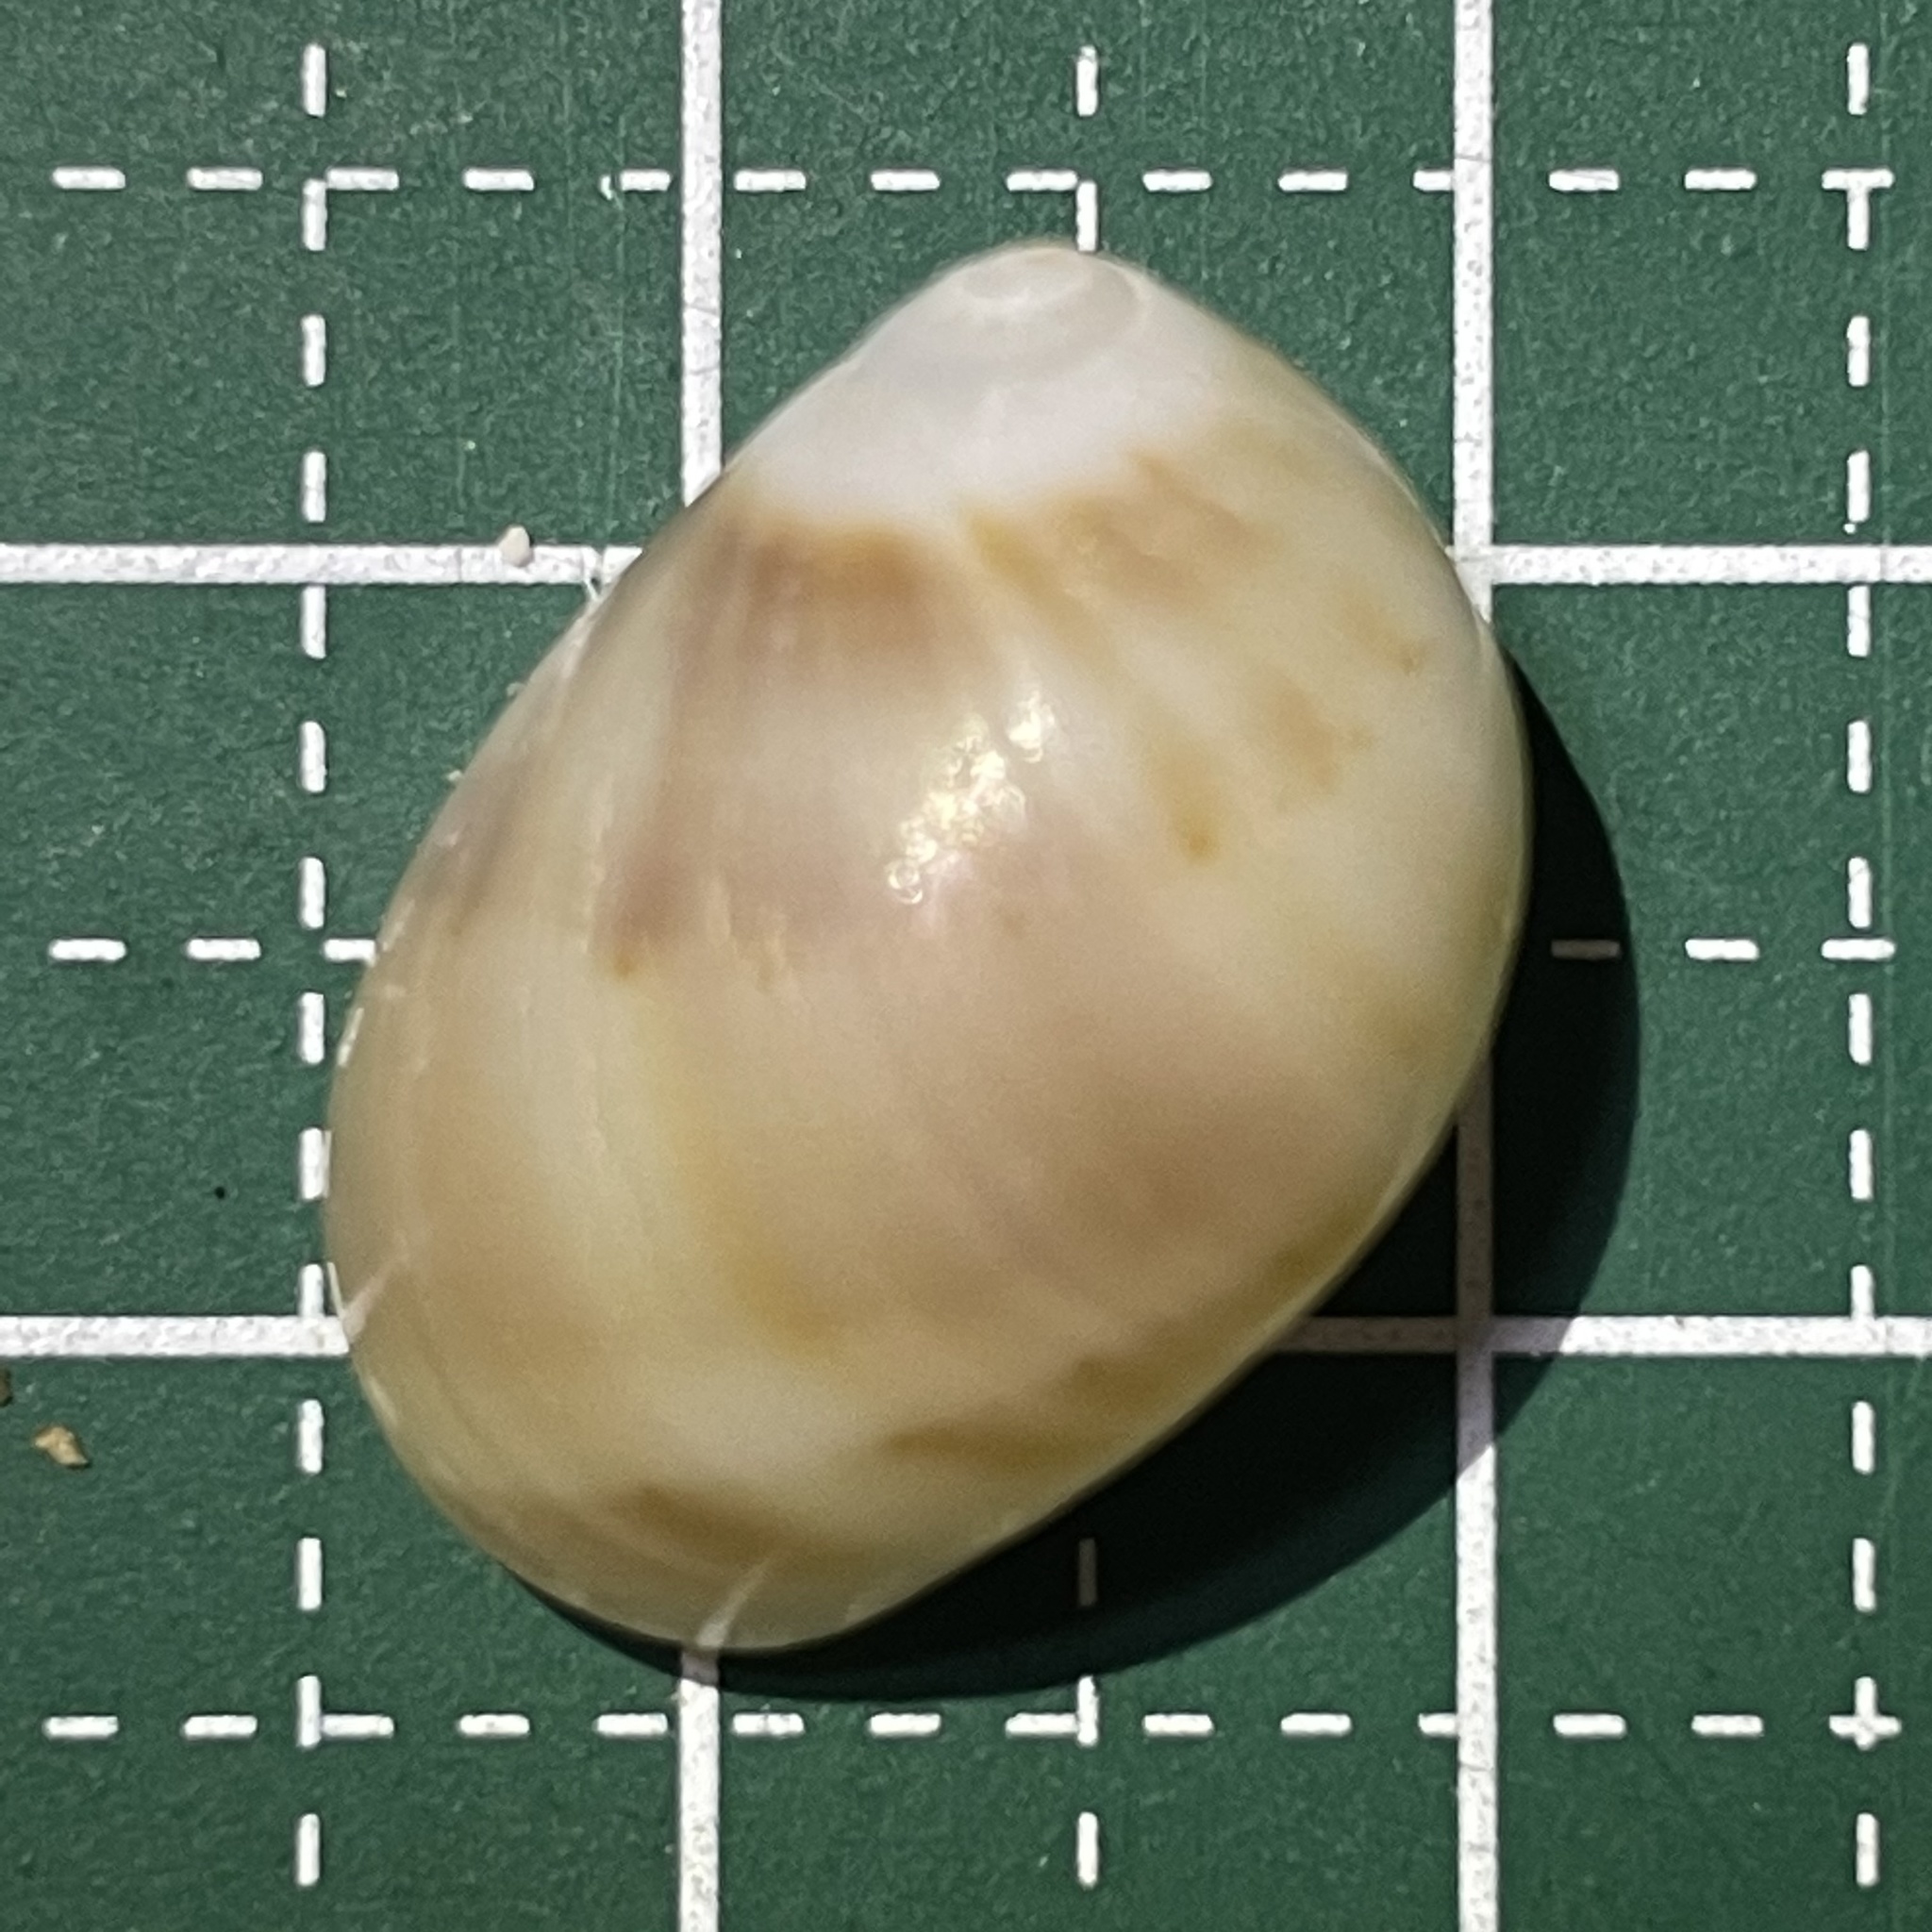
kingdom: Animalia
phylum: Mollusca
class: Gastropoda
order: Littorinimorpha
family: Naticidae
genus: Mammilla
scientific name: Mammilla melanostoma
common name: Black-mouth moonsnail
